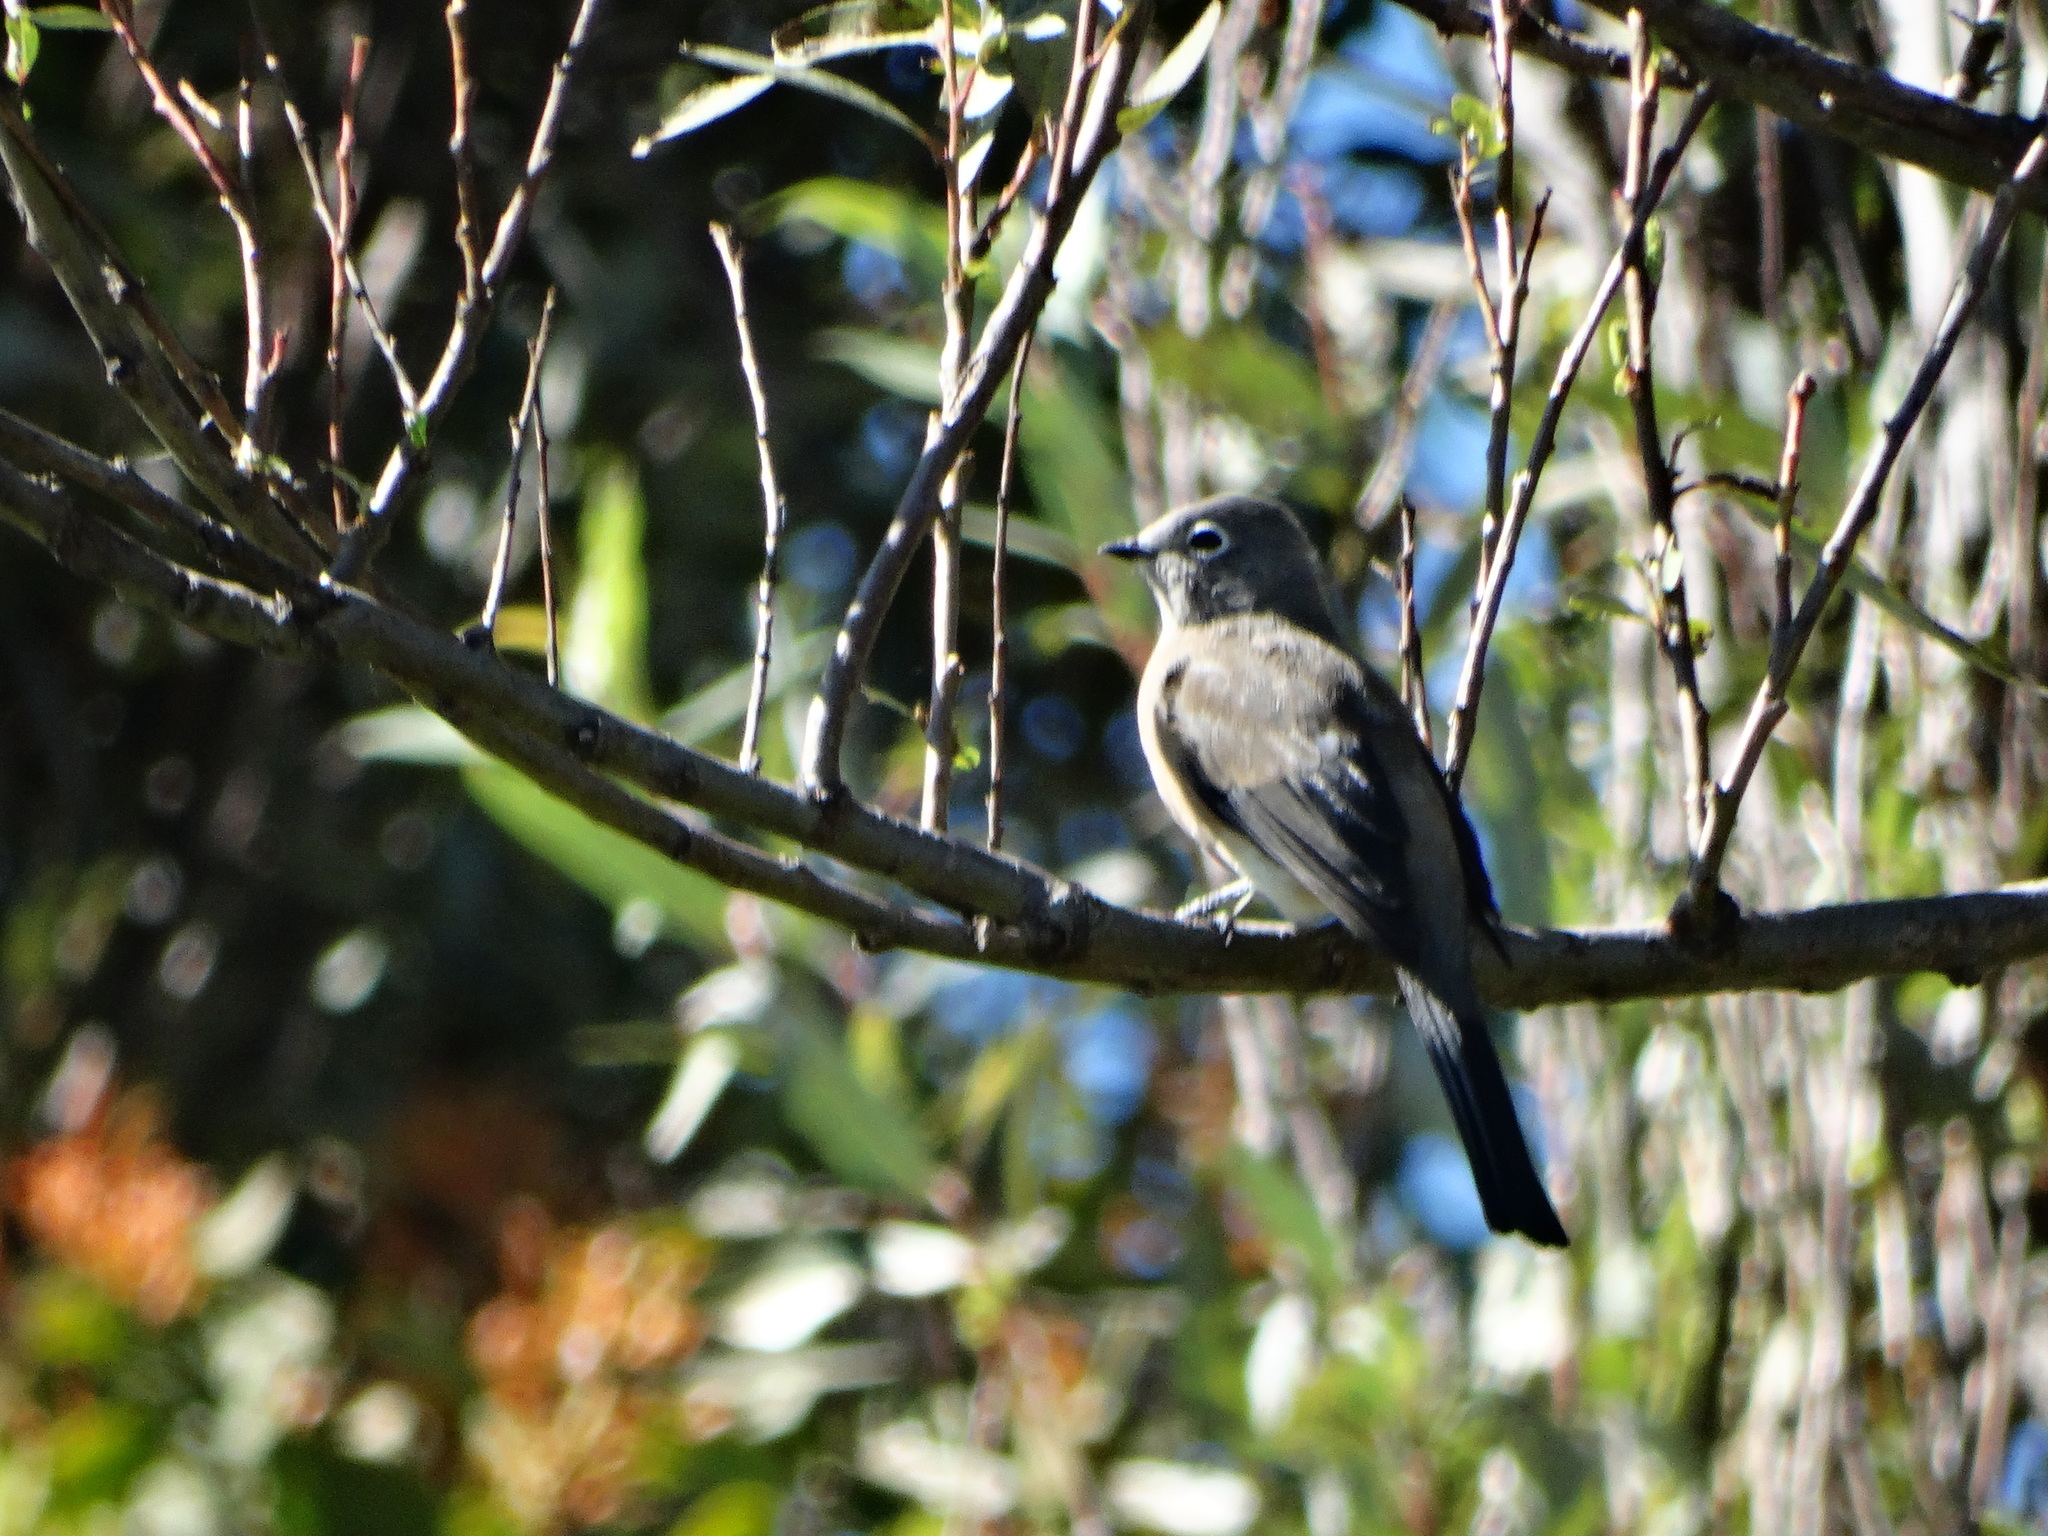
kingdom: Animalia
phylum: Chordata
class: Aves
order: Passeriformes
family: Ptilogonatidae
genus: Ptilogonys
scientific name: Ptilogonys cinereus
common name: Gray silky-flycatcher
